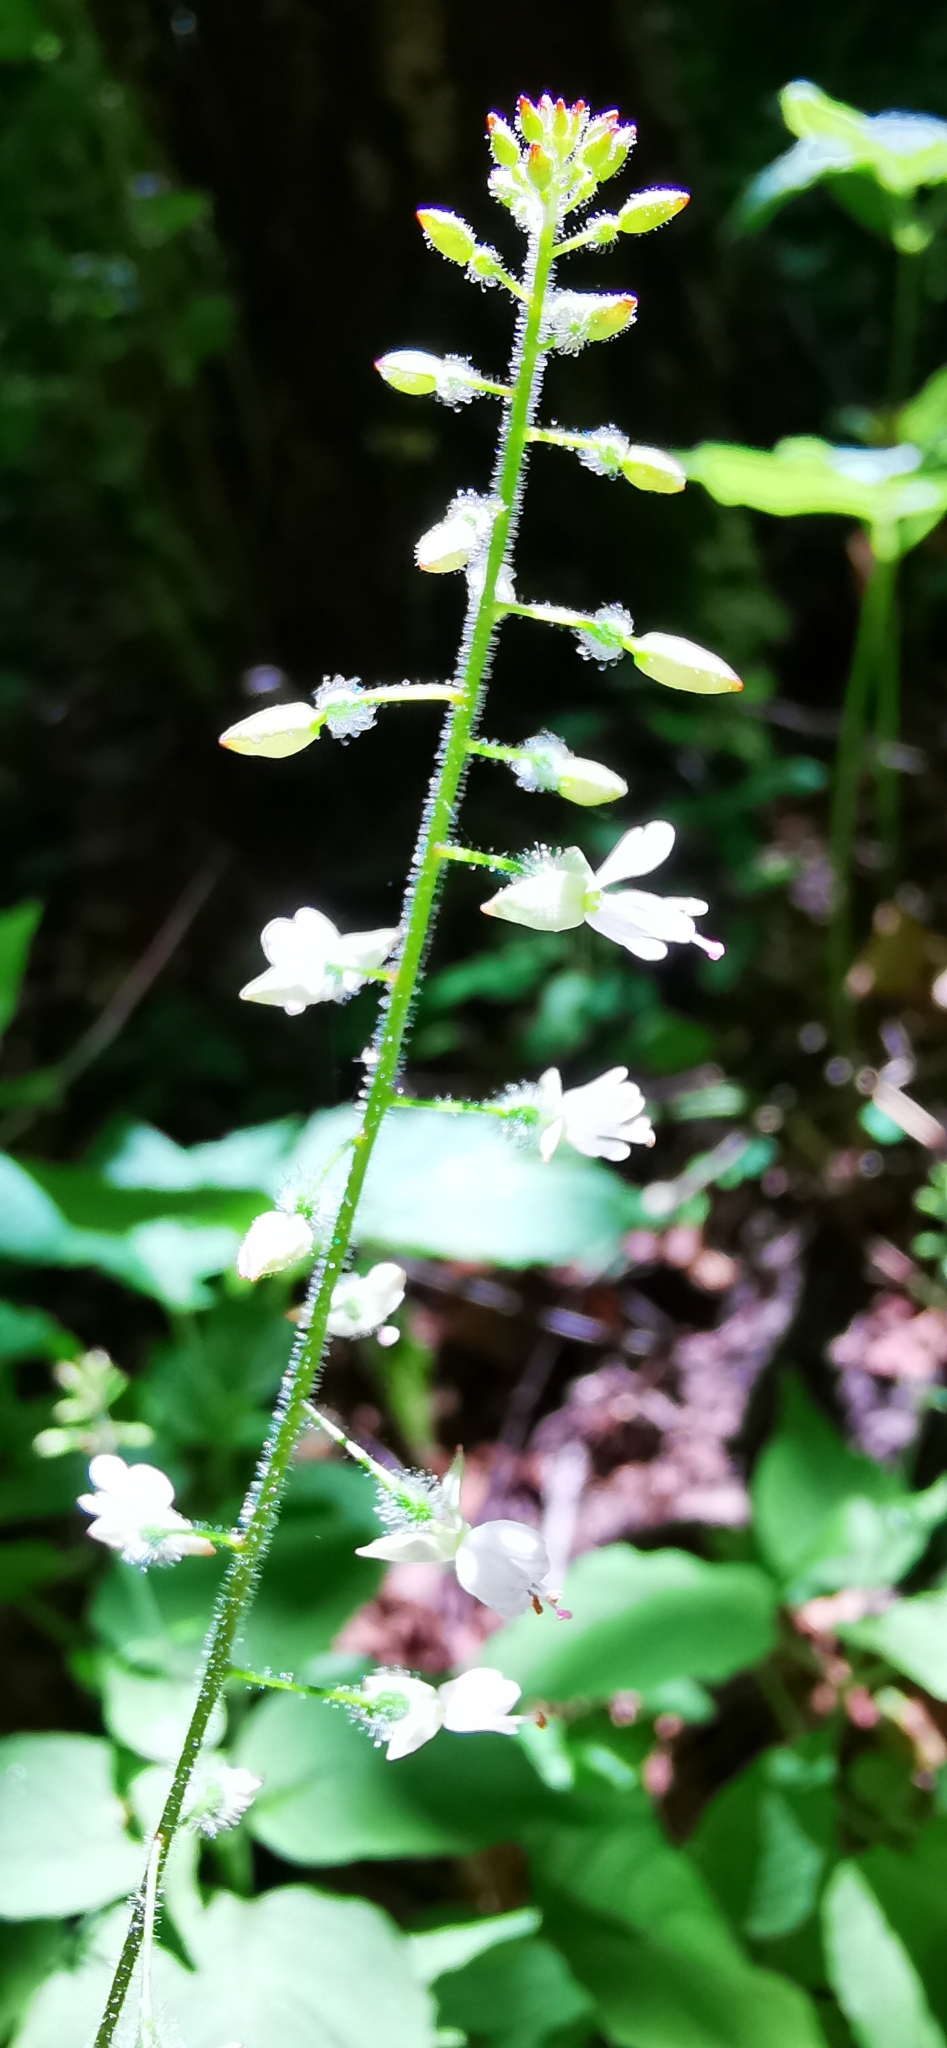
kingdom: Plantae
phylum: Tracheophyta
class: Magnoliopsida
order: Myrtales
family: Onagraceae
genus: Circaea
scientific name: Circaea lutetiana
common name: Enchanter's-nightshade
